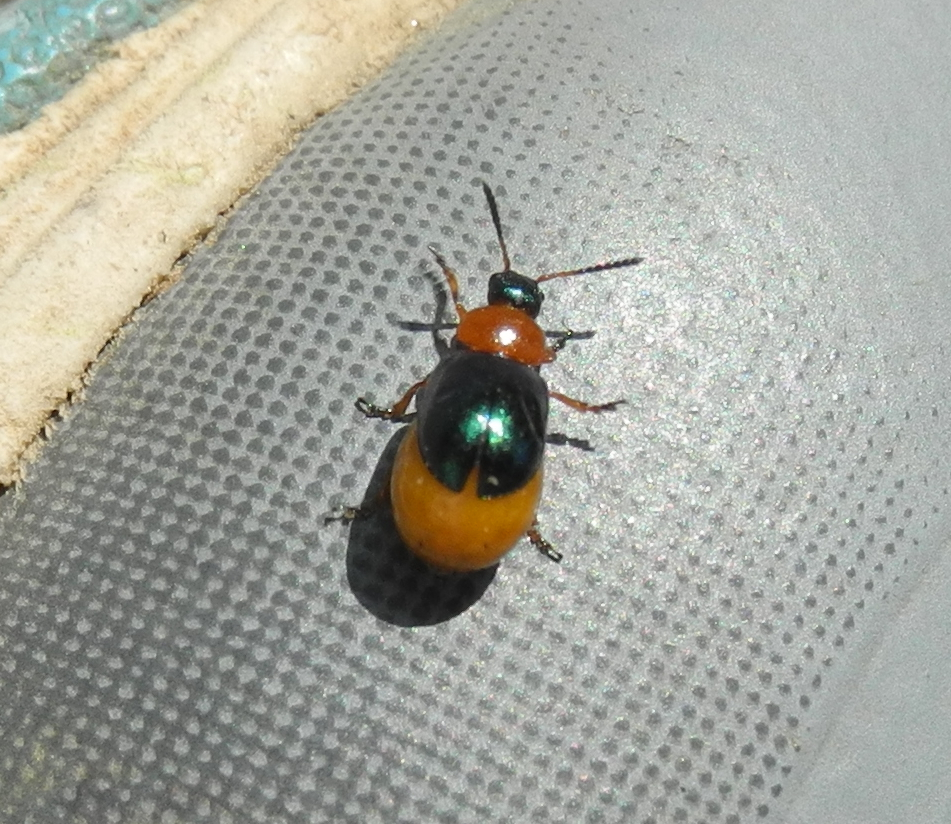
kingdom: Animalia
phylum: Arthropoda
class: Insecta
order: Coleoptera
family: Chrysomelidae
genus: Gastrophysa
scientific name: Gastrophysa polygoni
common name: Knotweed leaf beetle
